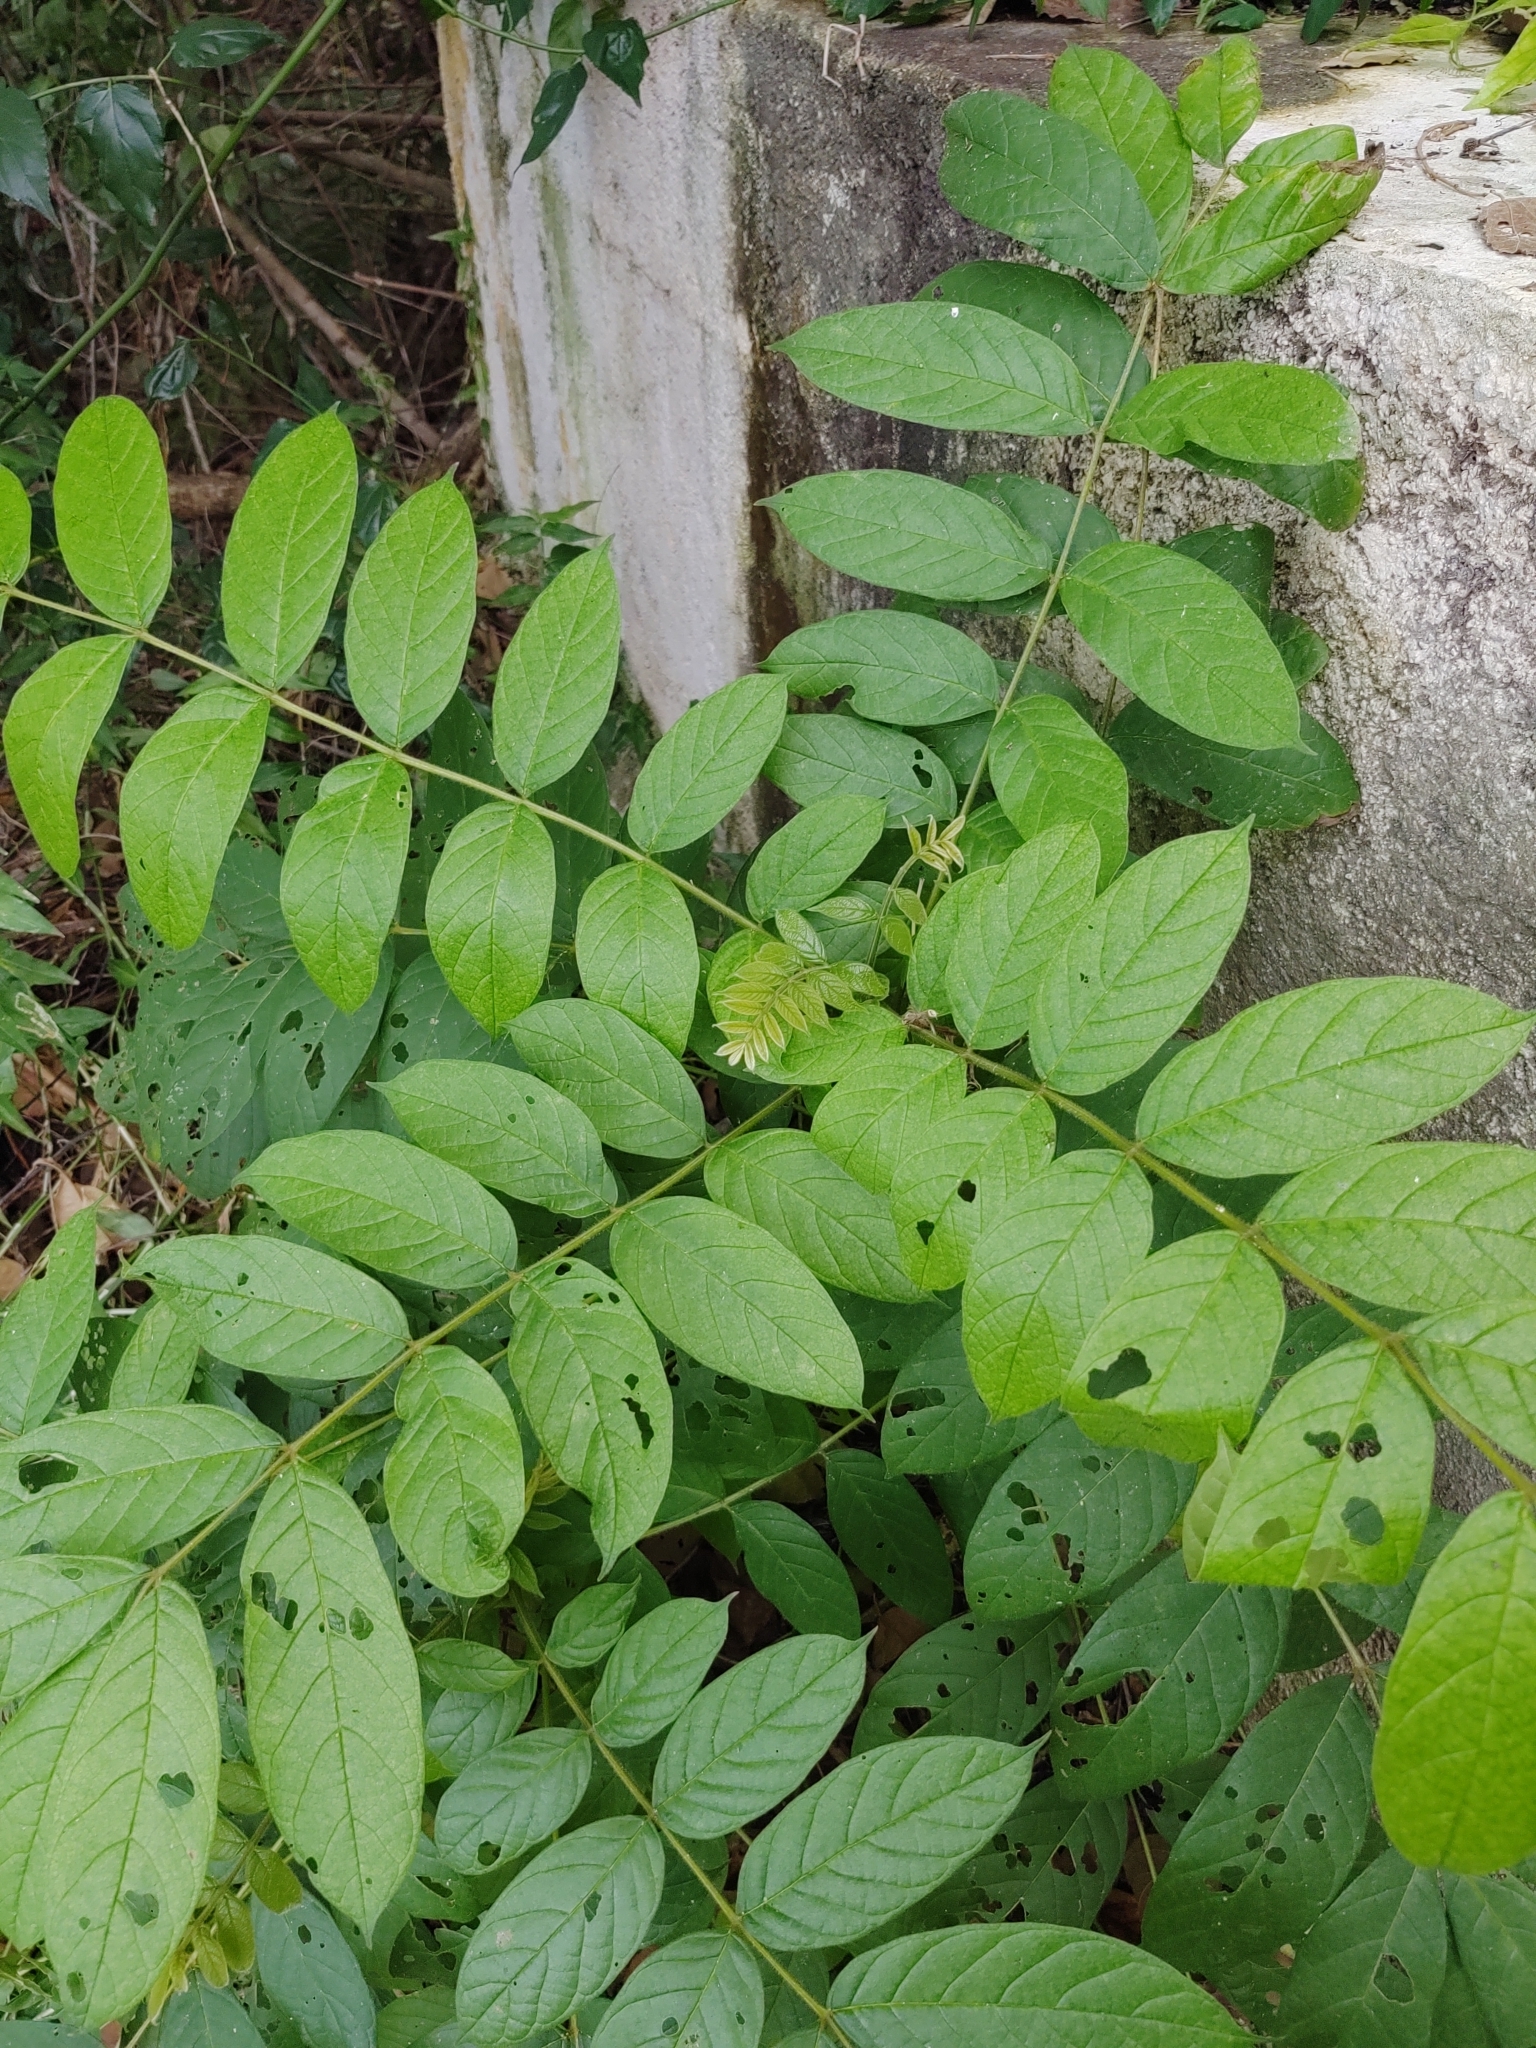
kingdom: Plantae
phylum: Tracheophyta
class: Magnoliopsida
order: Lamiales
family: Bignoniaceae
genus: Spathodea
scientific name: Spathodea campanulata
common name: African tuliptree
